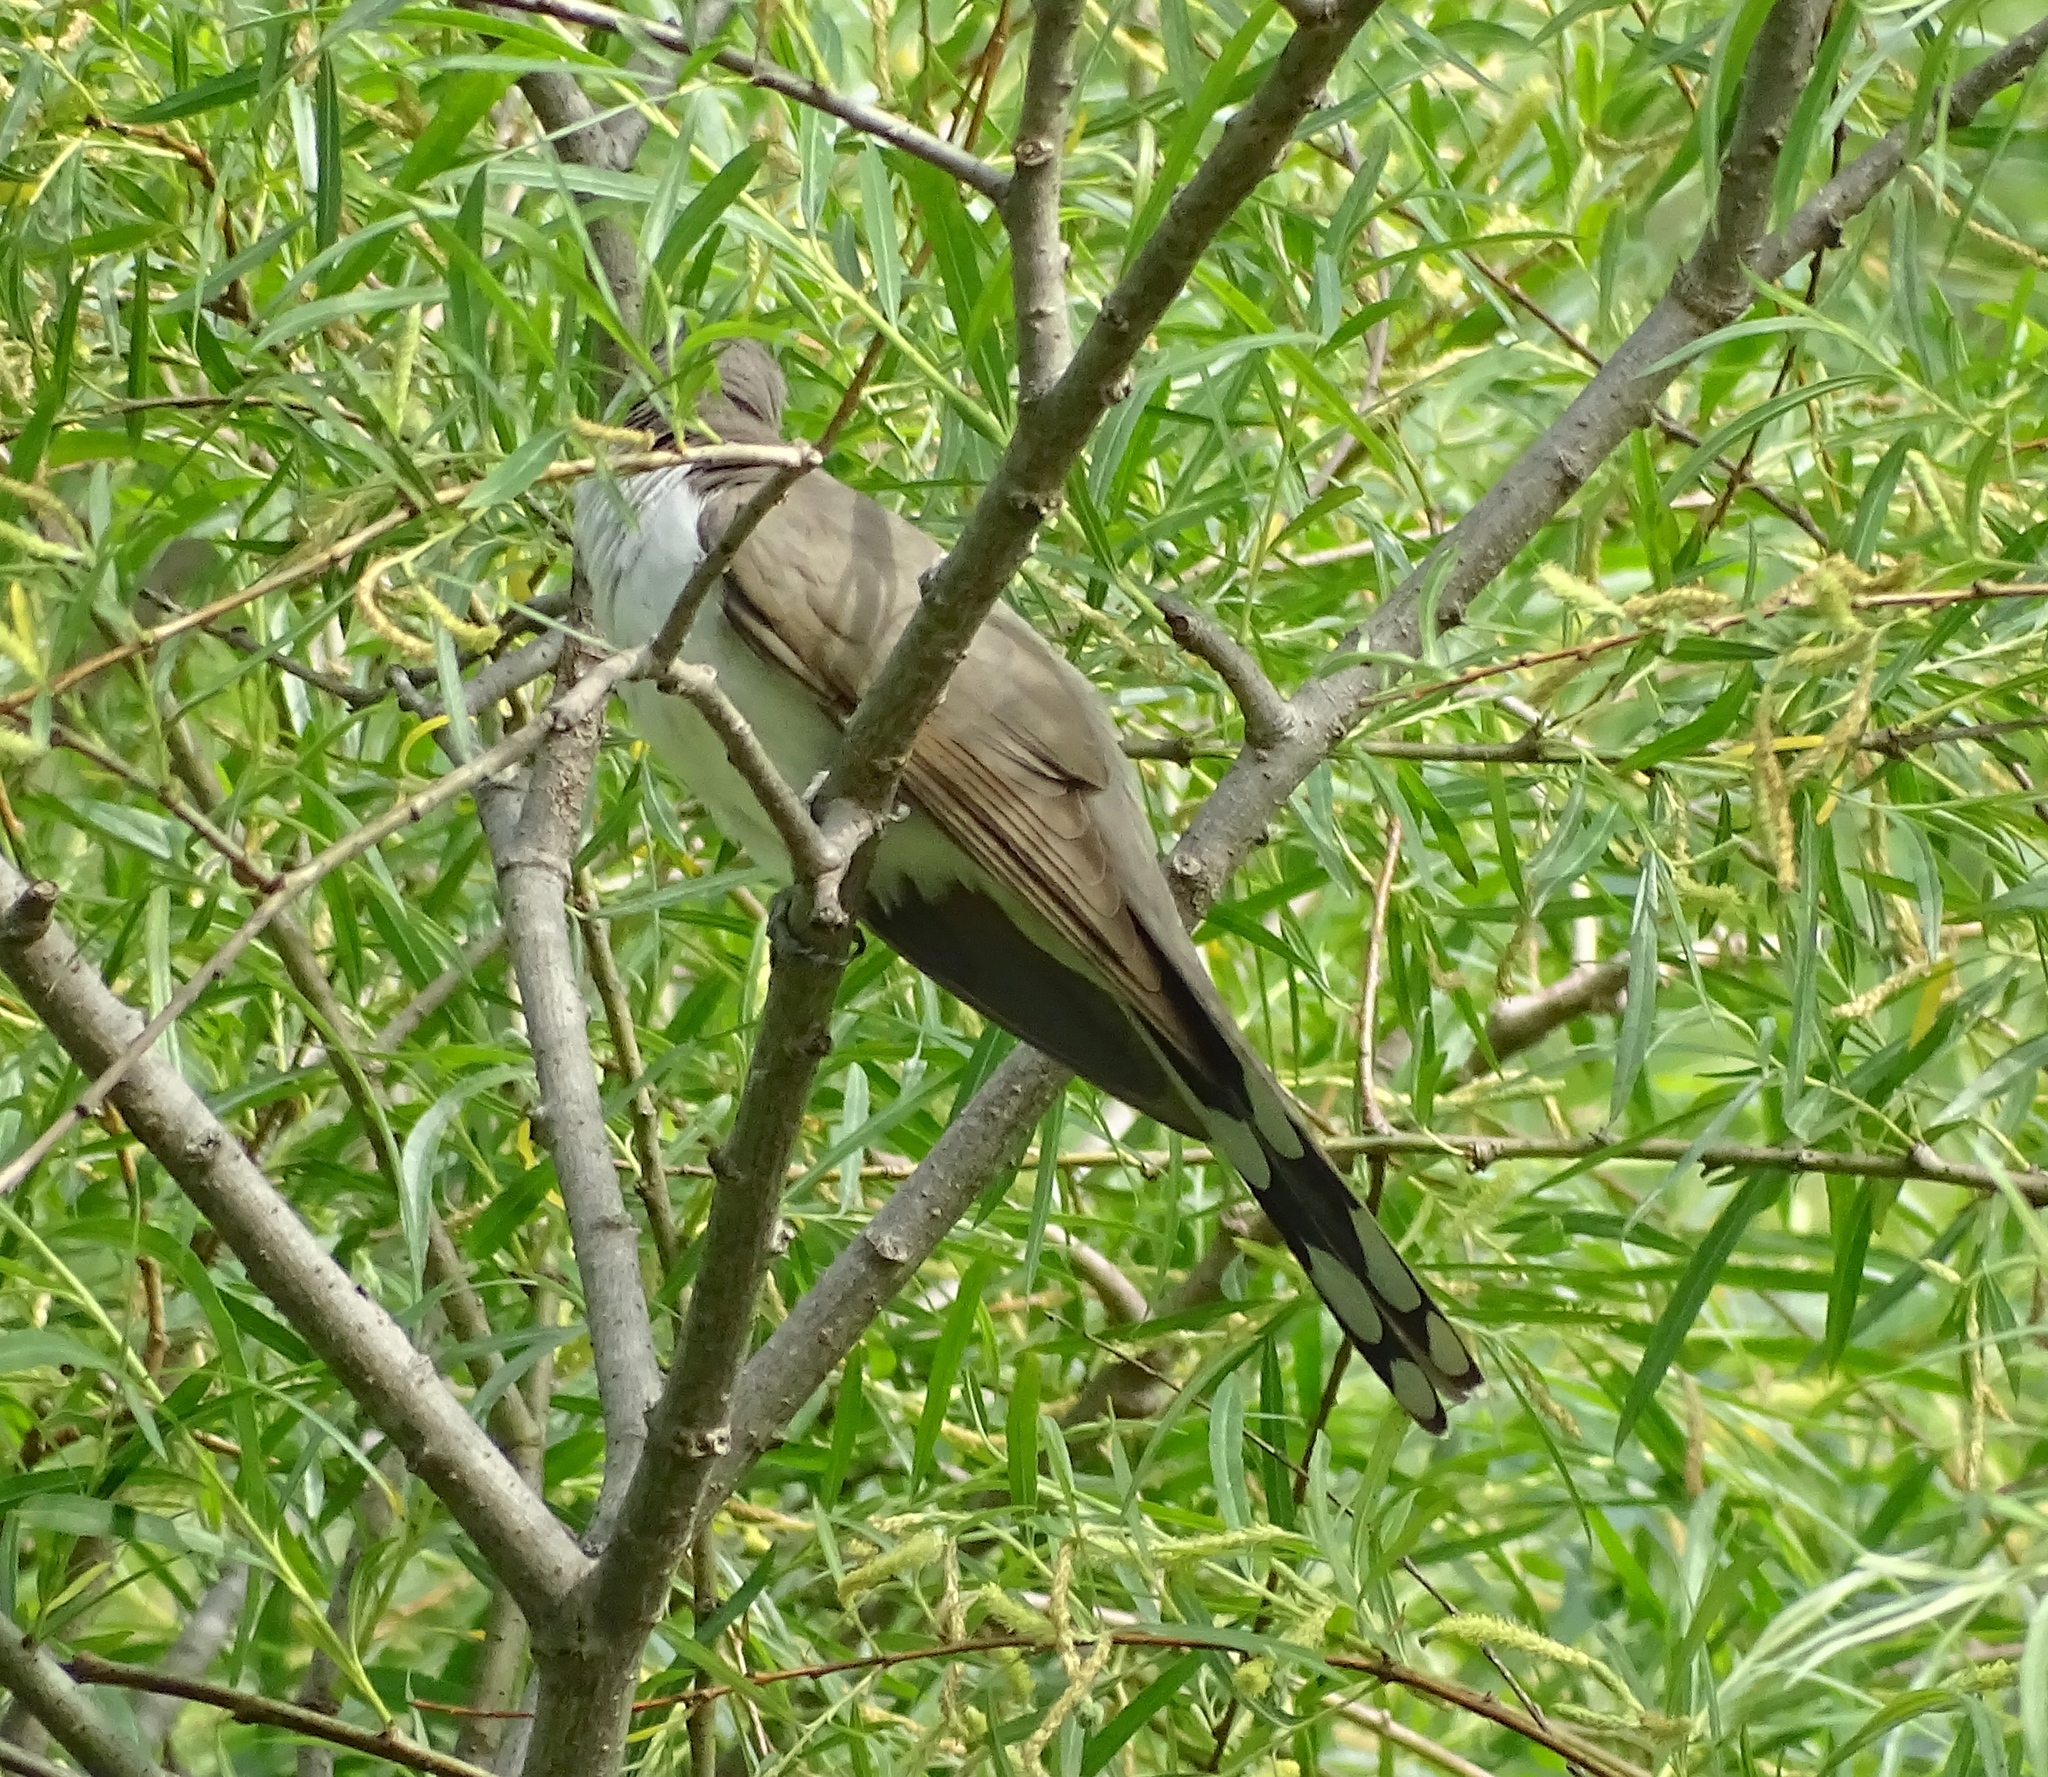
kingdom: Animalia
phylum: Chordata
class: Aves
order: Cuculiformes
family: Cuculidae
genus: Coccyzus
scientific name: Coccyzus americanus
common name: Yellow-billed cuckoo
